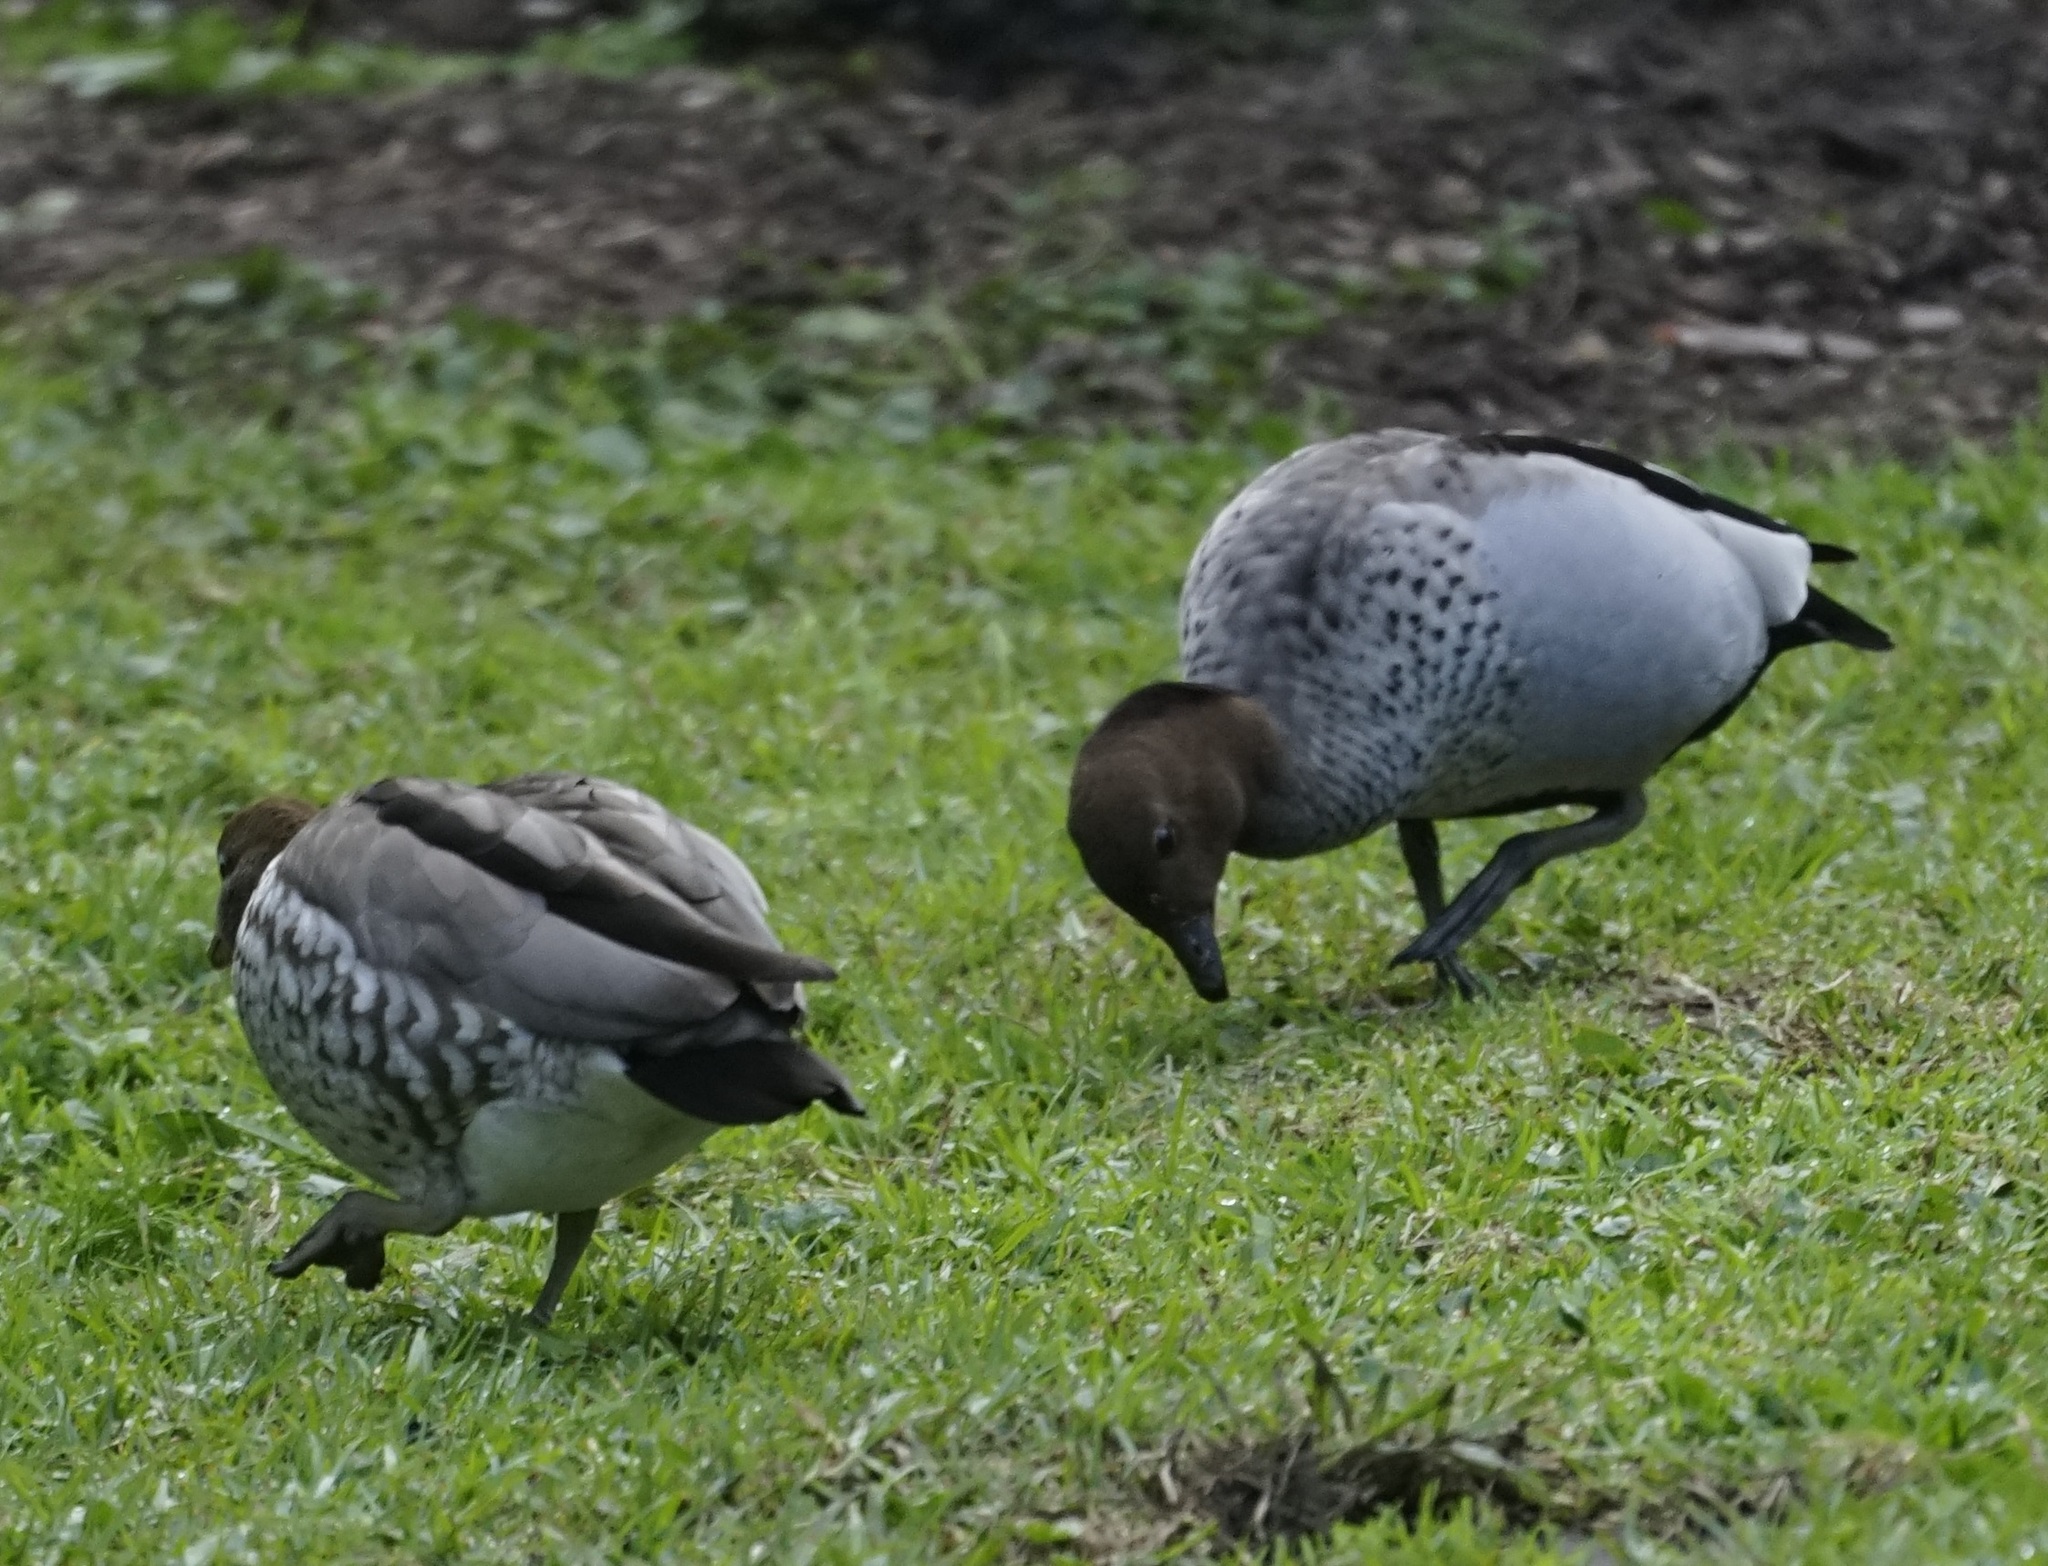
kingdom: Animalia
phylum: Chordata
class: Aves
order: Anseriformes
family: Anatidae
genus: Chenonetta
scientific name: Chenonetta jubata
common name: Maned duck
